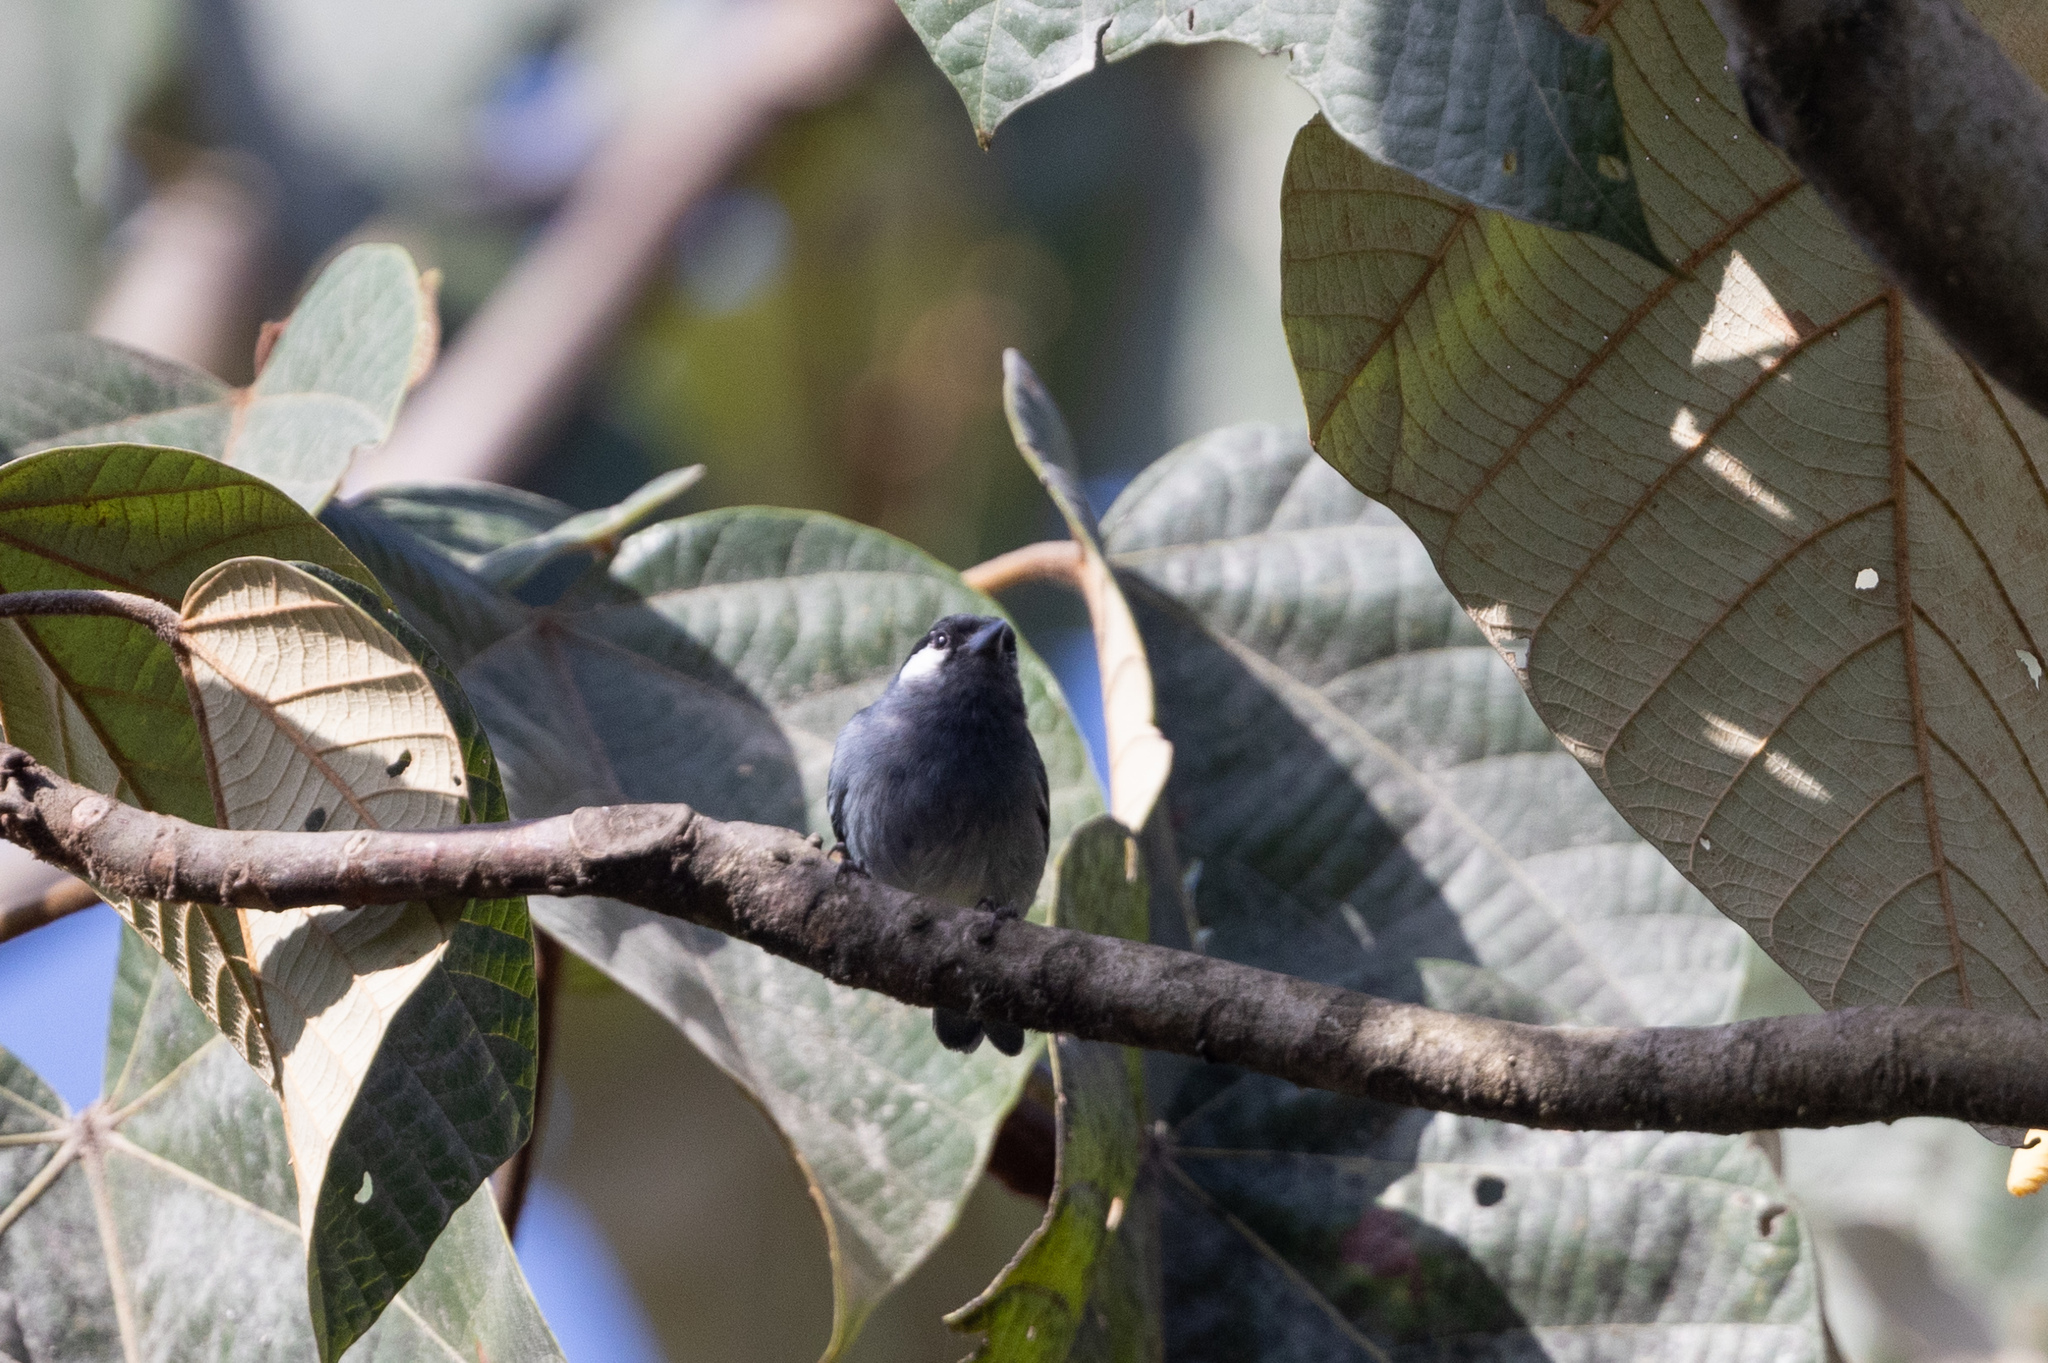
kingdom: Animalia
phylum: Chordata
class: Aves
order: Passeriformes
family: Thraupidae
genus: Conirostrum
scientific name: Conirostrum leucogenys
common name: White-eared conebill
